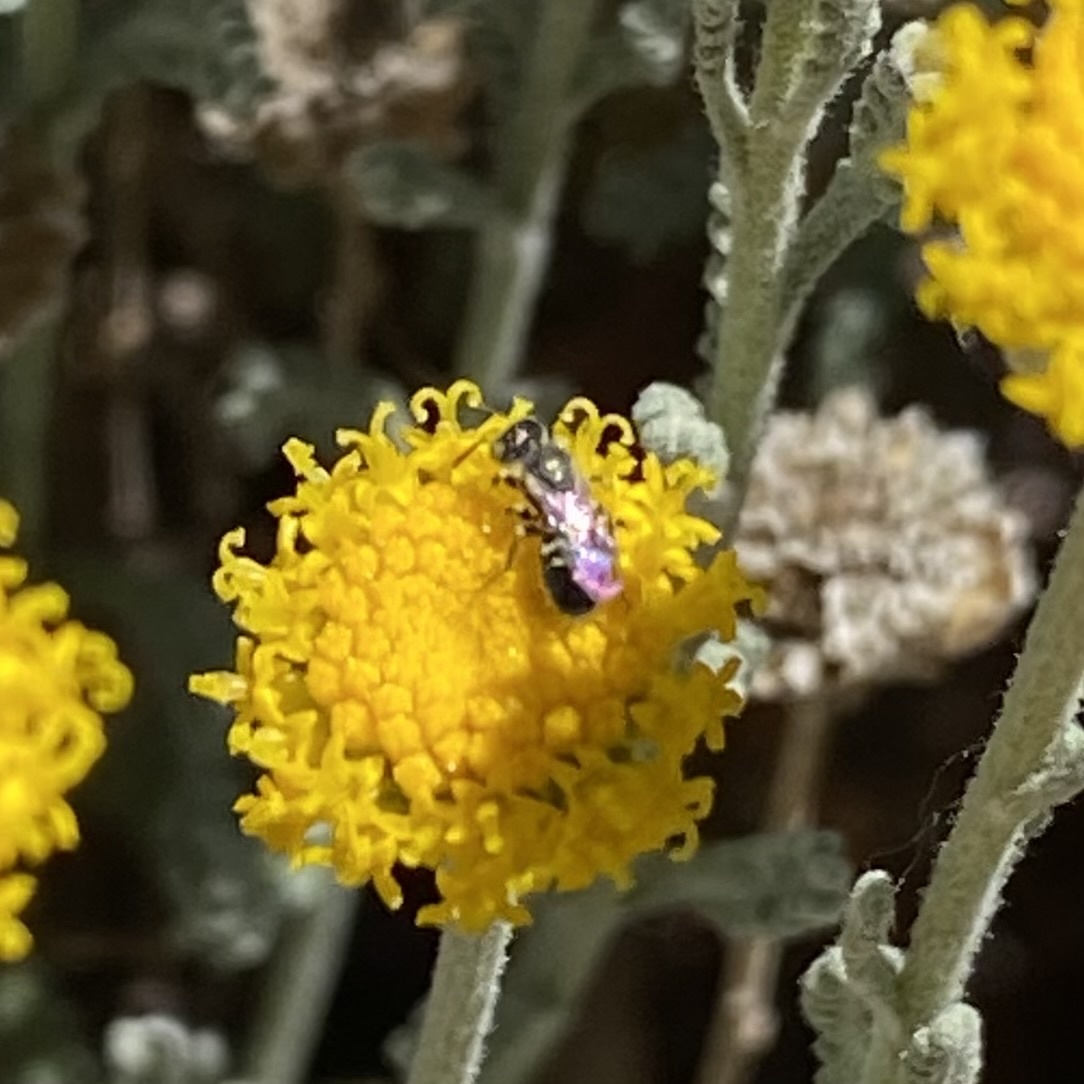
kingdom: Animalia
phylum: Arthropoda
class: Insecta
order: Hymenoptera
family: Andrenidae
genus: Perdita
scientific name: Perdita
